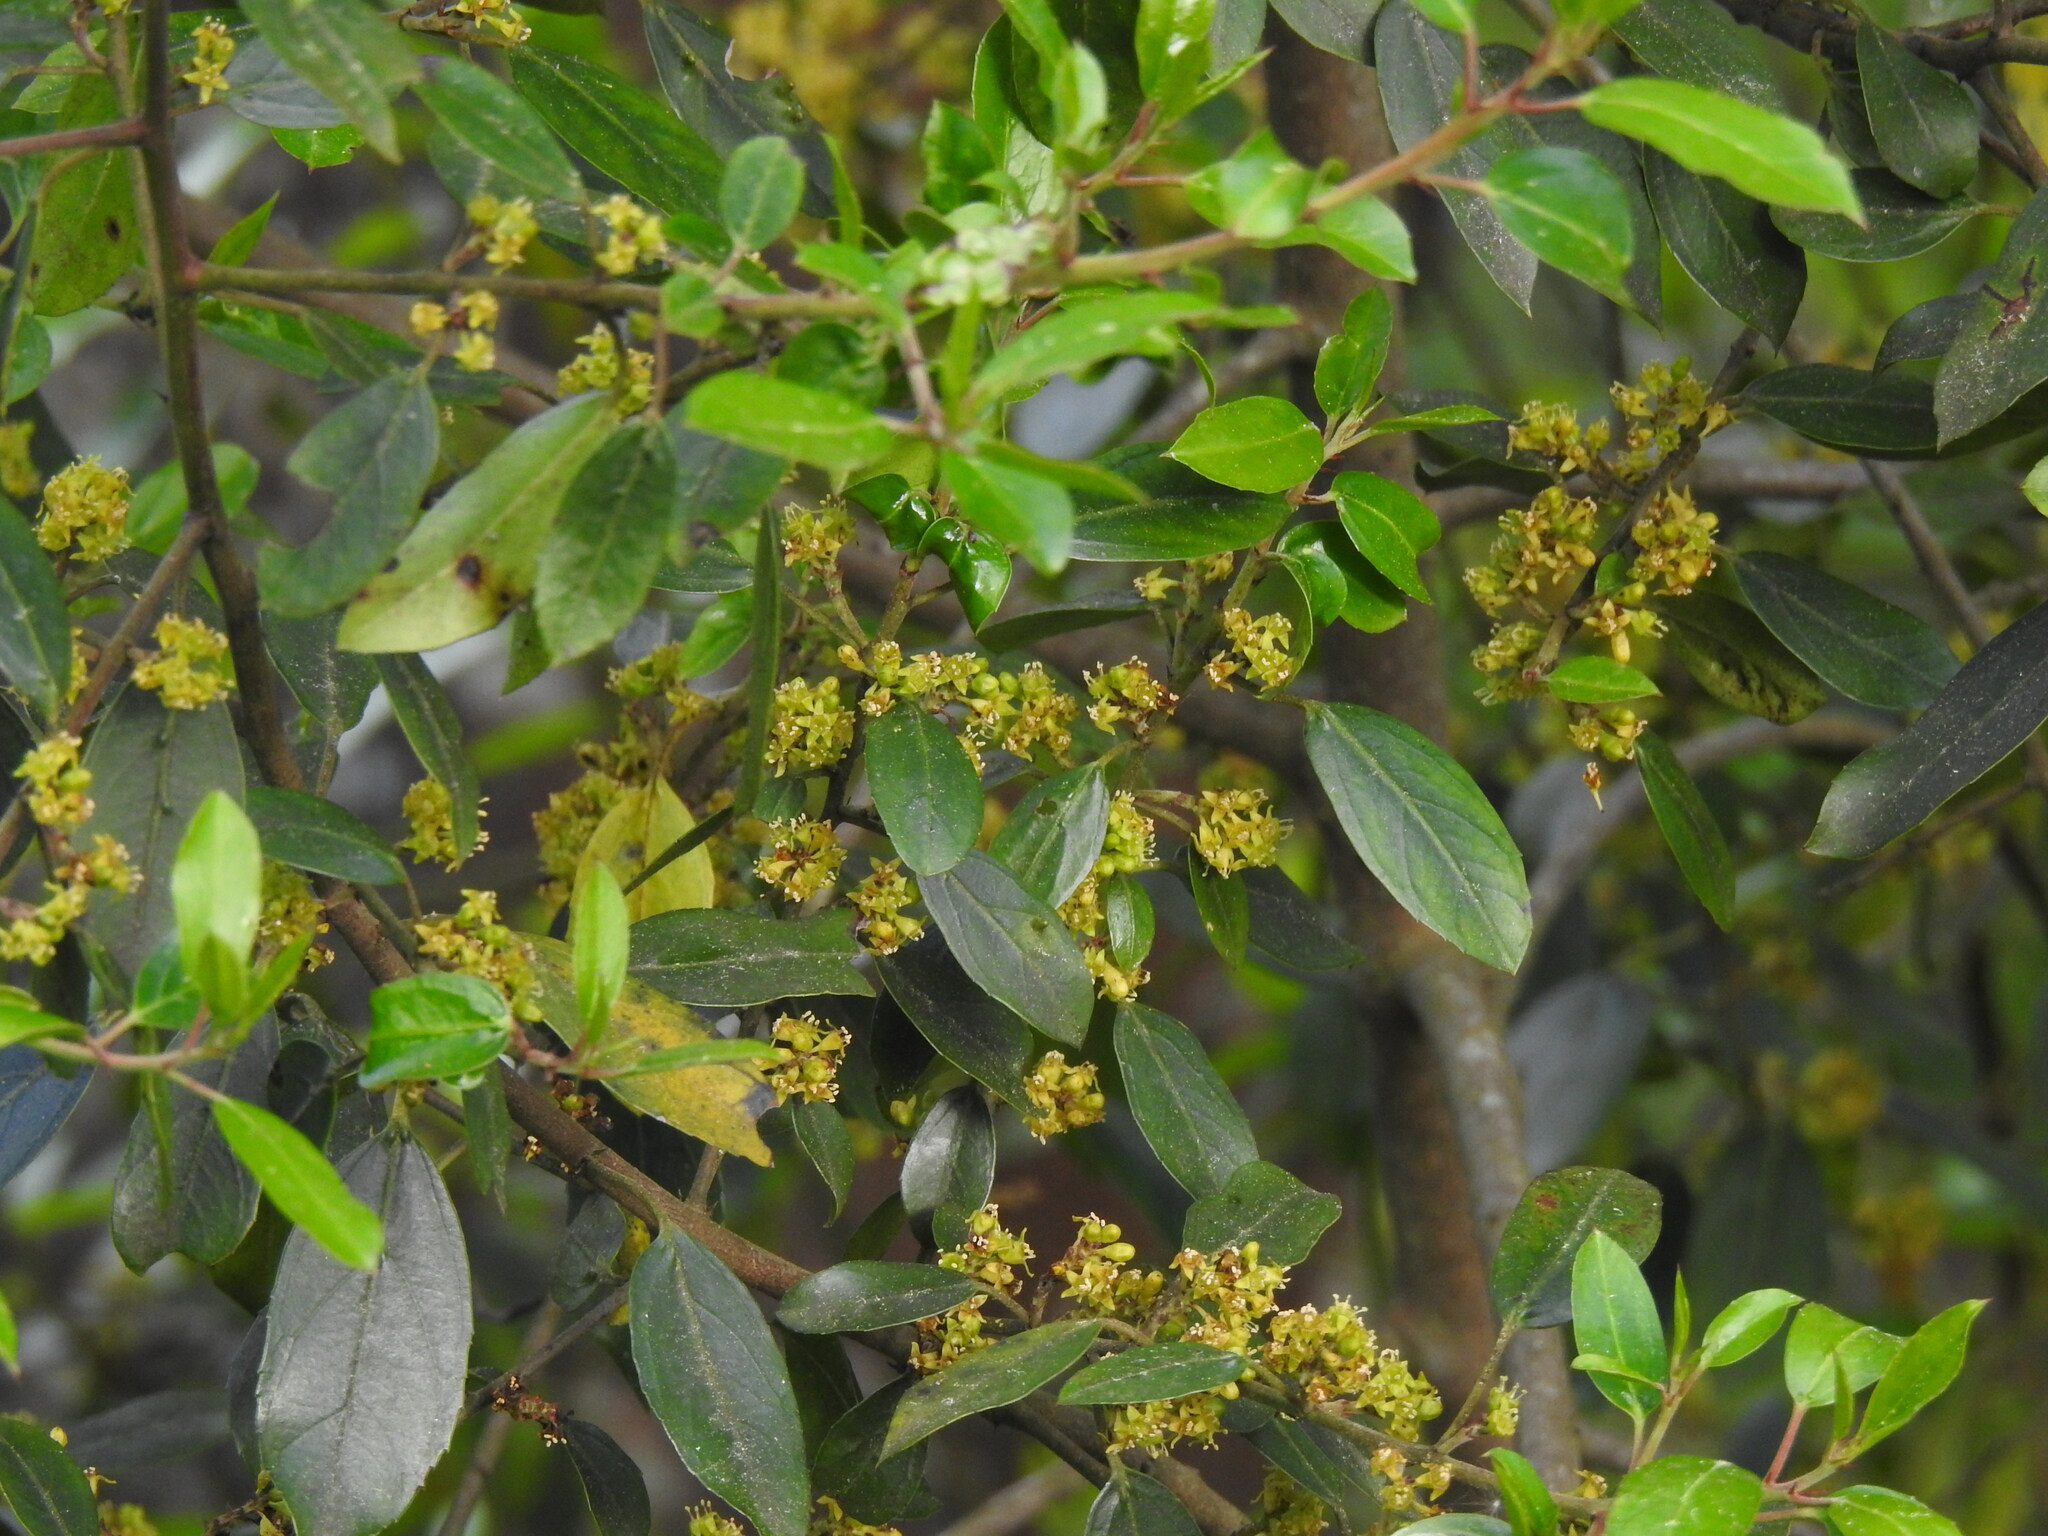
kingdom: Plantae
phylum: Tracheophyta
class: Magnoliopsida
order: Rosales
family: Rhamnaceae
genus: Rhamnus
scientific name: Rhamnus alaternus
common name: Mediterranean buckthorn
